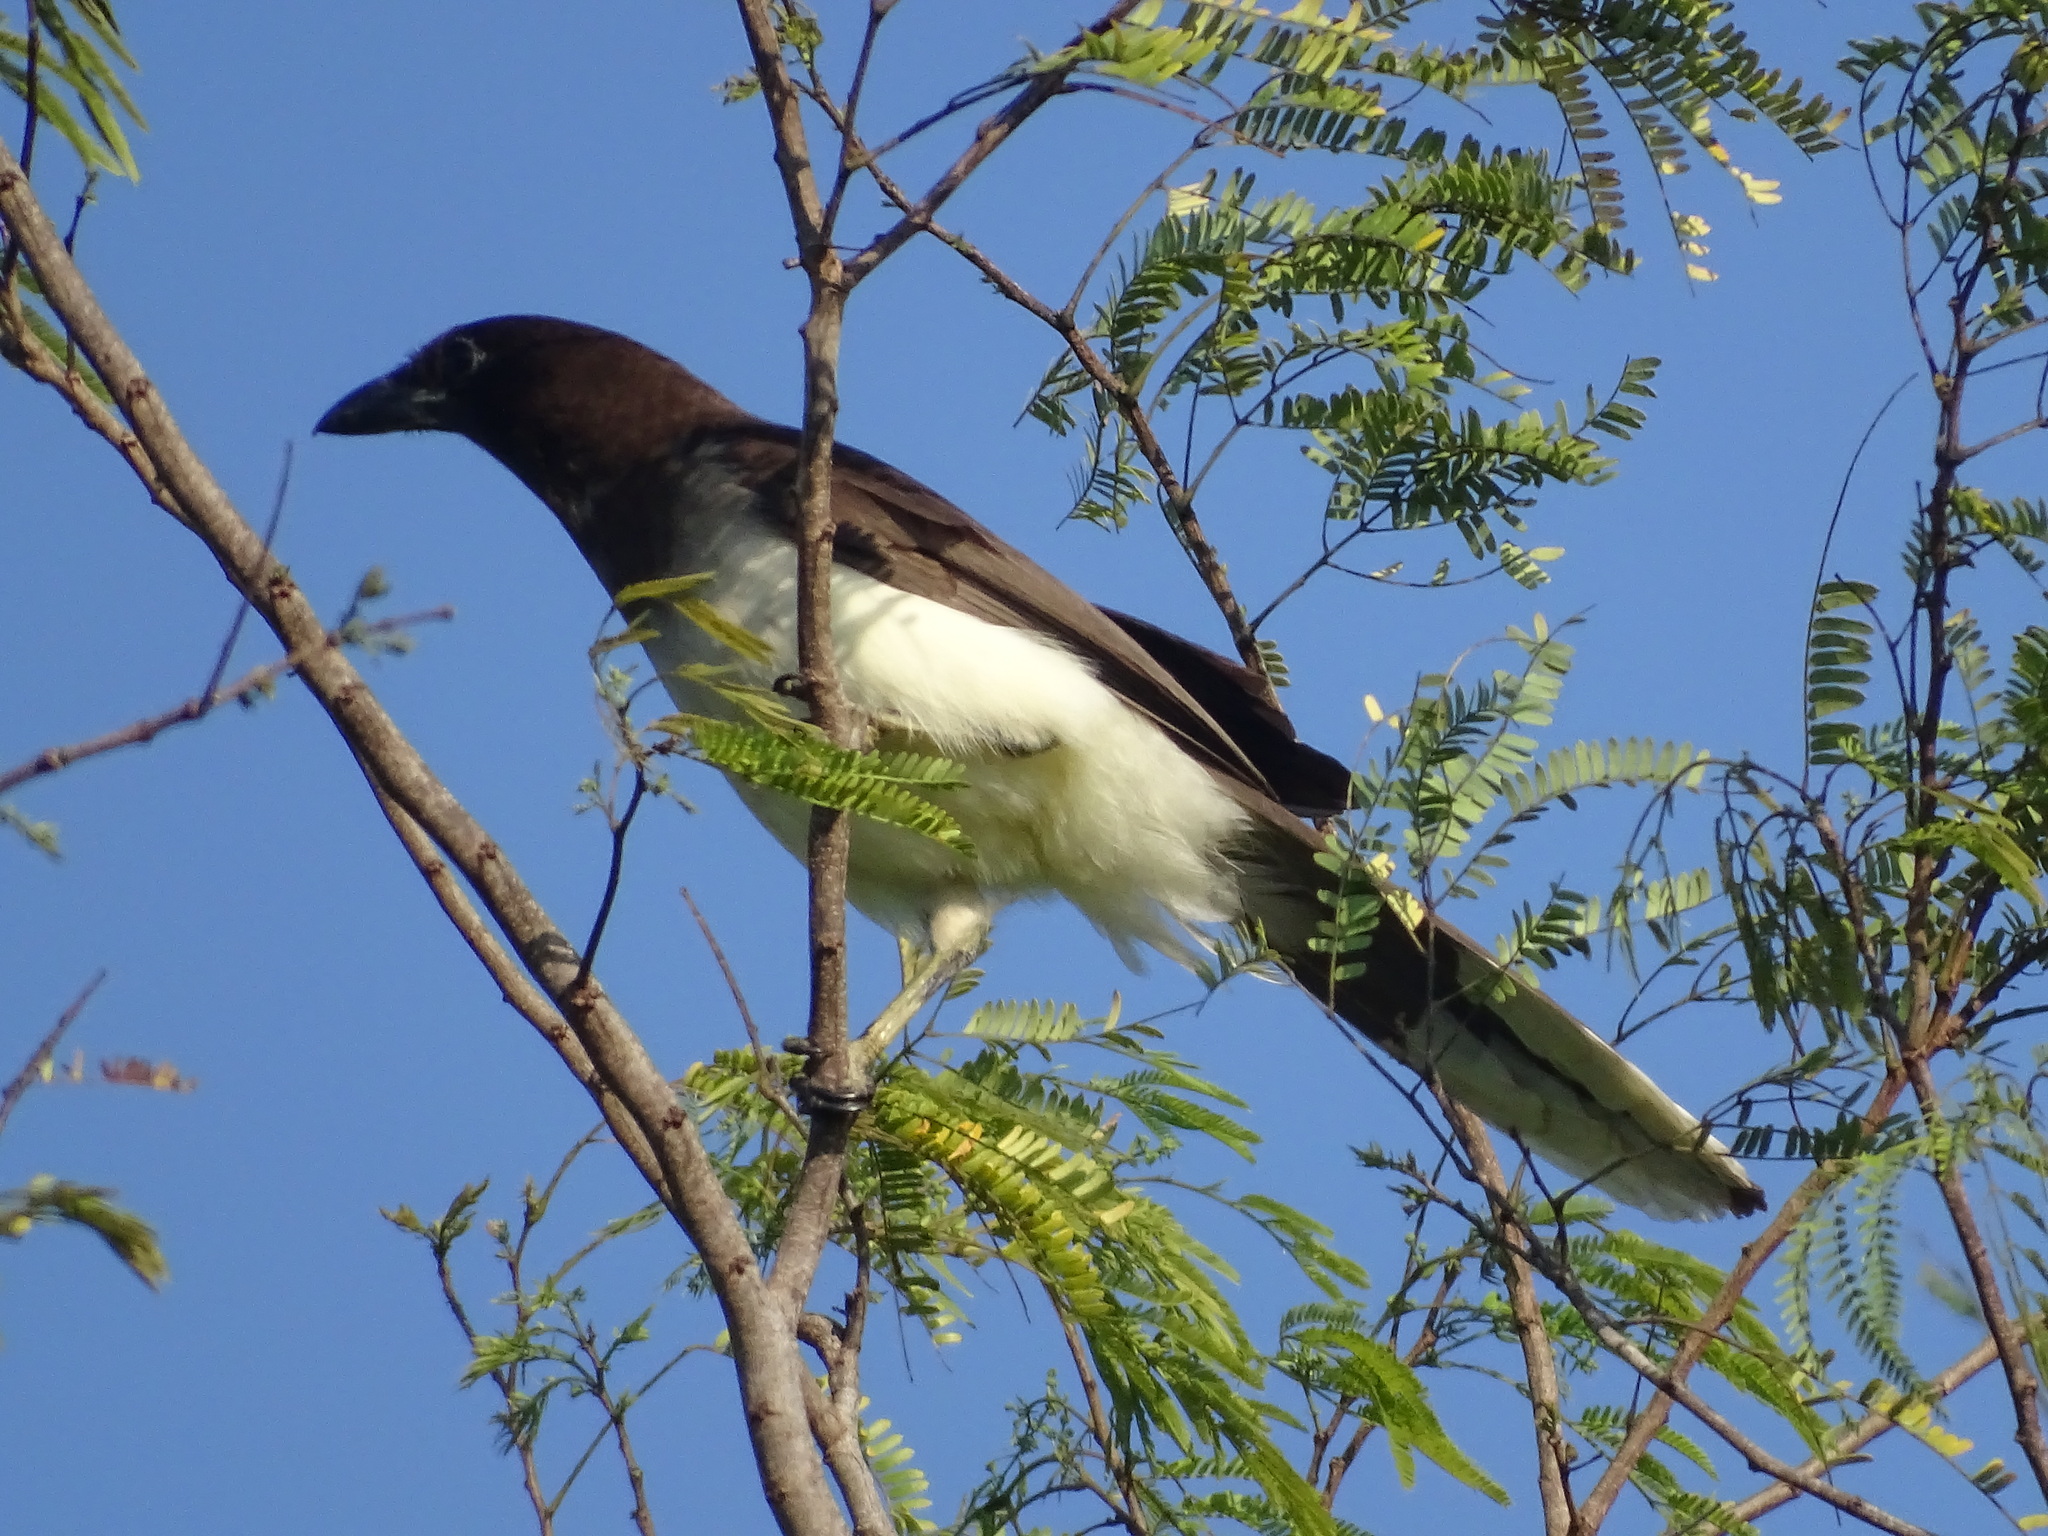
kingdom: Animalia
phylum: Chordata
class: Aves
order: Passeriformes
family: Corvidae
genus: Psilorhinus
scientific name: Psilorhinus morio
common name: Brown jay
